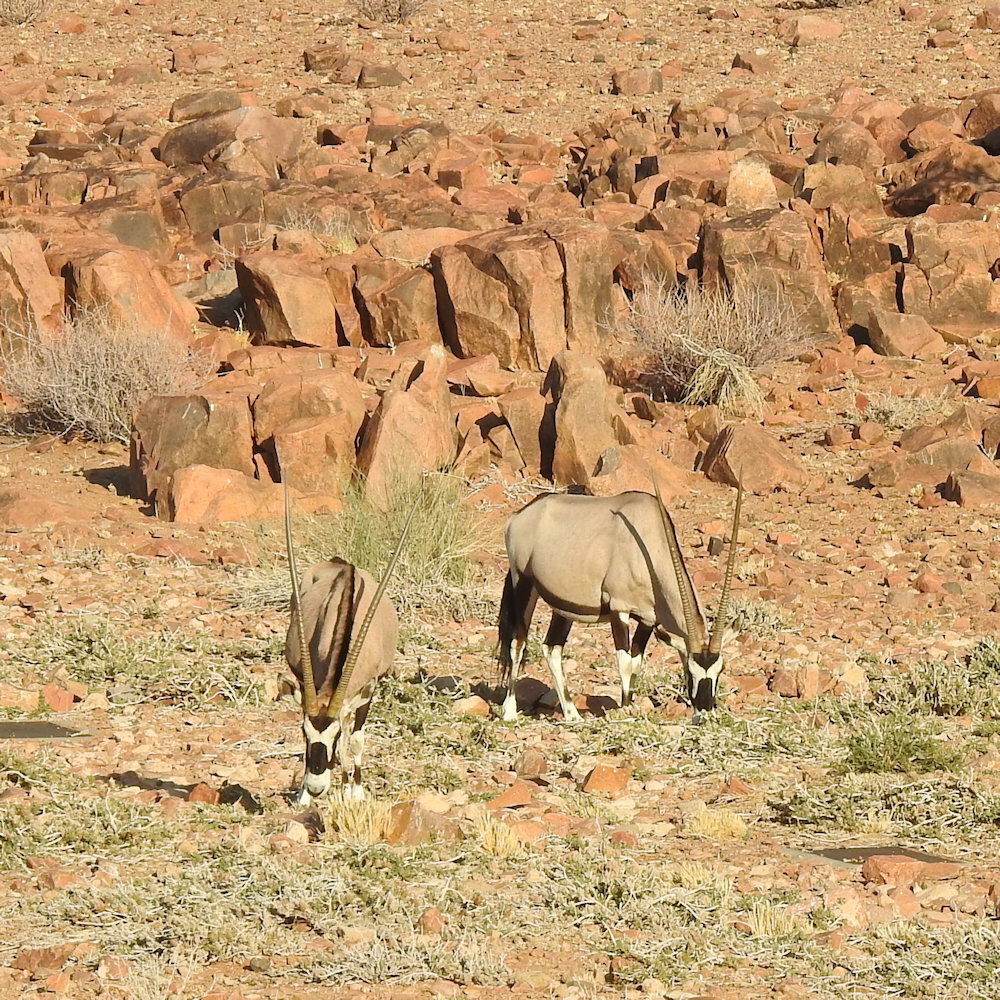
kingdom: Animalia
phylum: Chordata
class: Mammalia
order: Artiodactyla
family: Bovidae
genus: Oryx
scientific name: Oryx gazella
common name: Gemsbok
